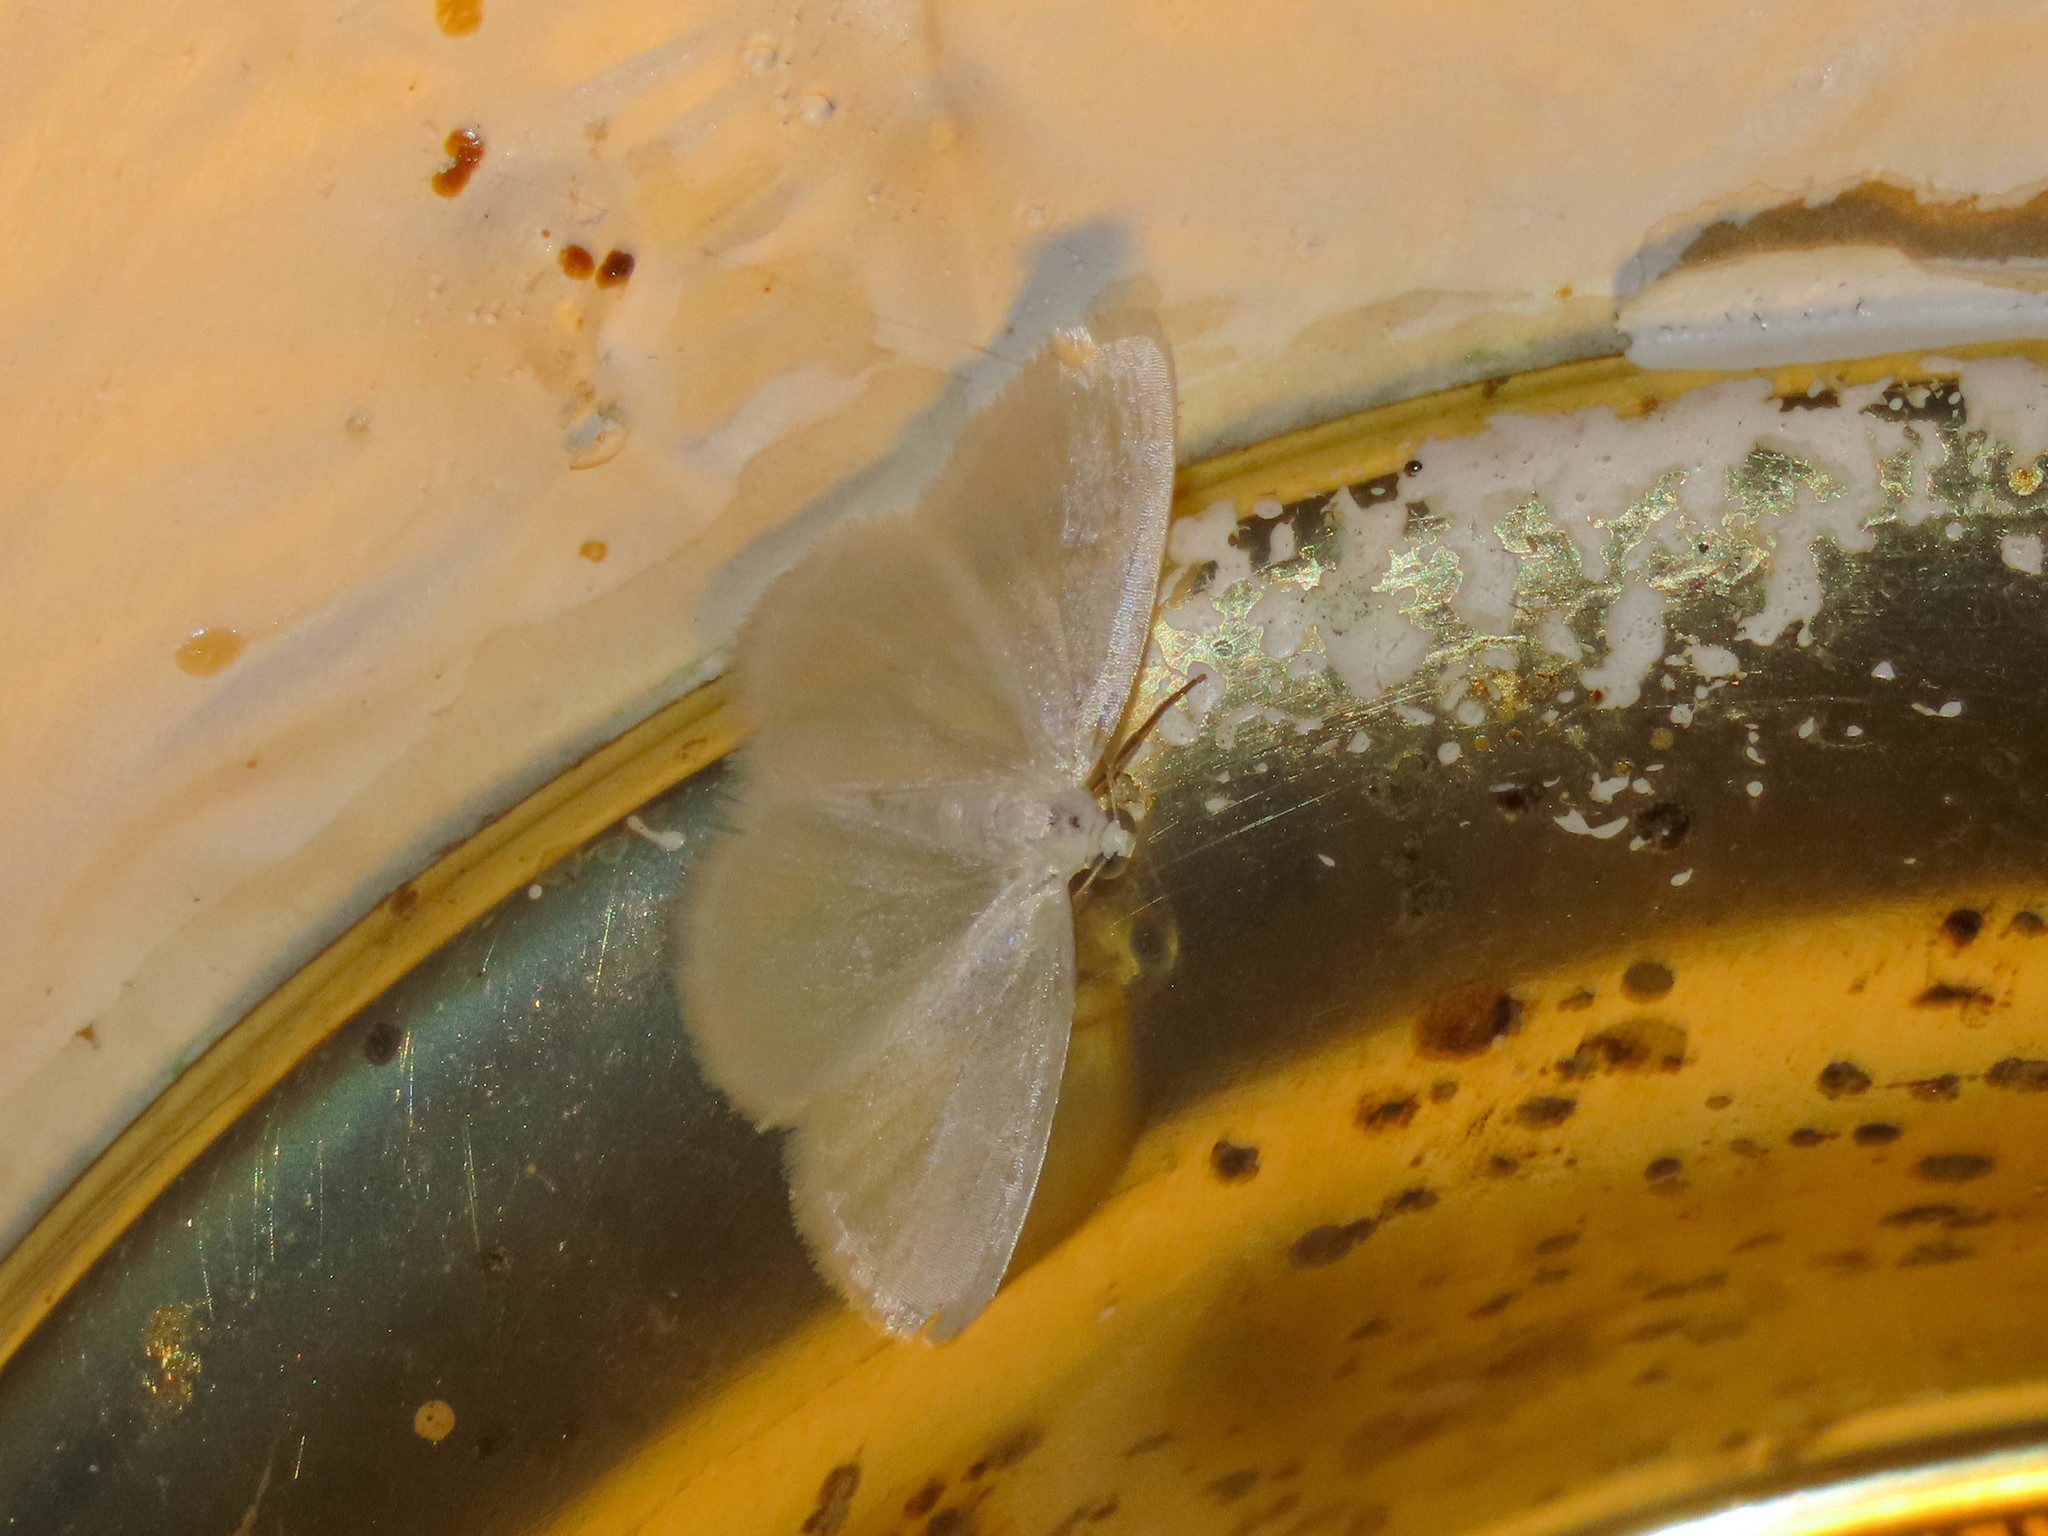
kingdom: Animalia
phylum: Arthropoda
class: Insecta
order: Lepidoptera
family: Geometridae
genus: Lomographa
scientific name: Lomographa vestaliata
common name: White spring moth
